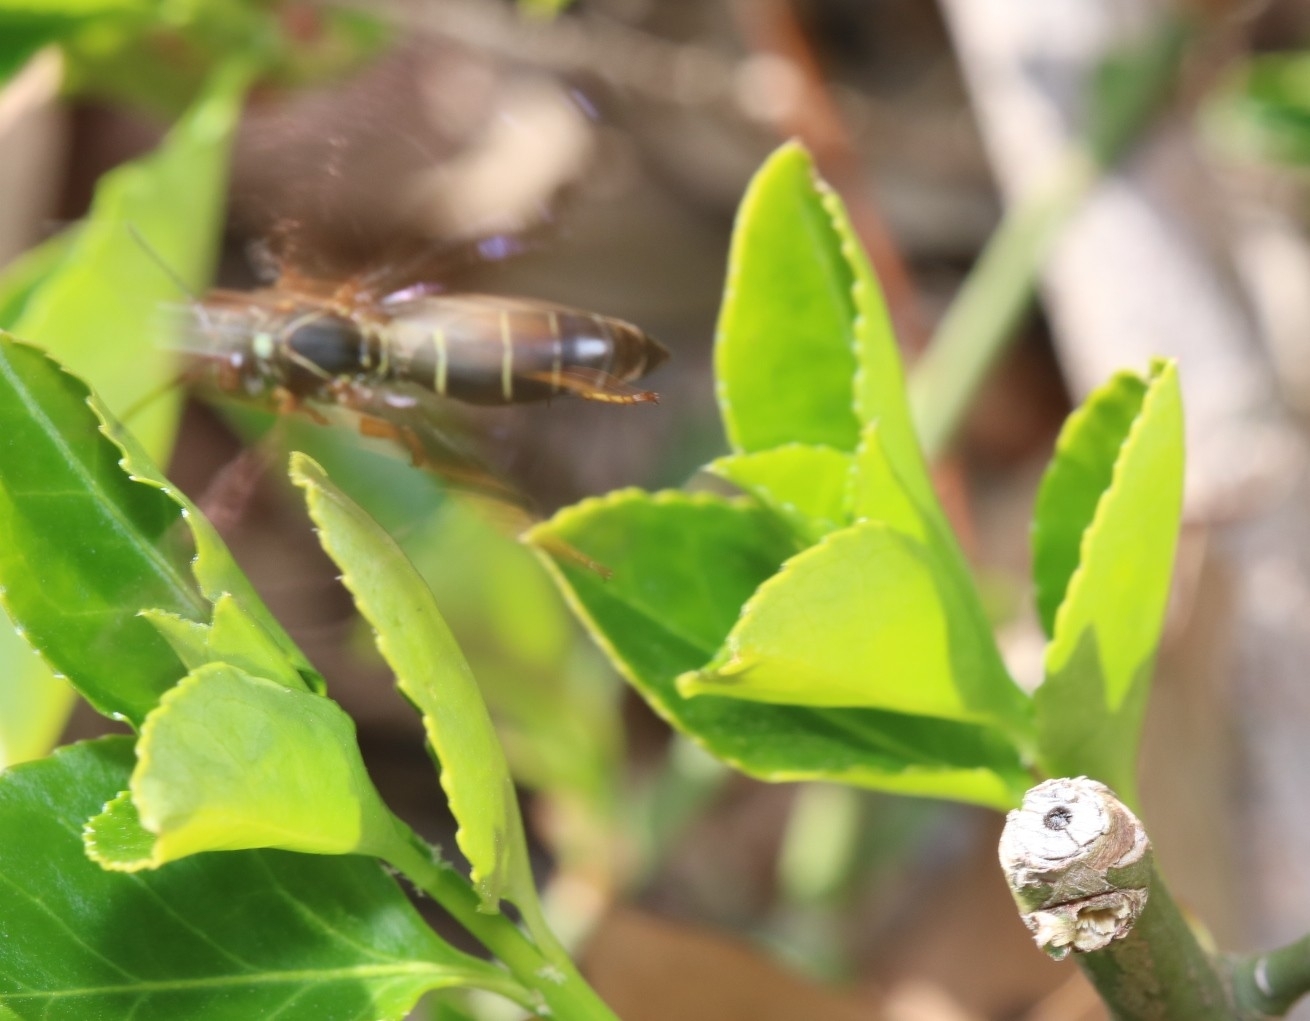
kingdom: Animalia
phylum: Arthropoda
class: Insecta
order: Hymenoptera
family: Eumenidae
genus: Polistes
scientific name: Polistes fuscatus
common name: Dark paper wasp
